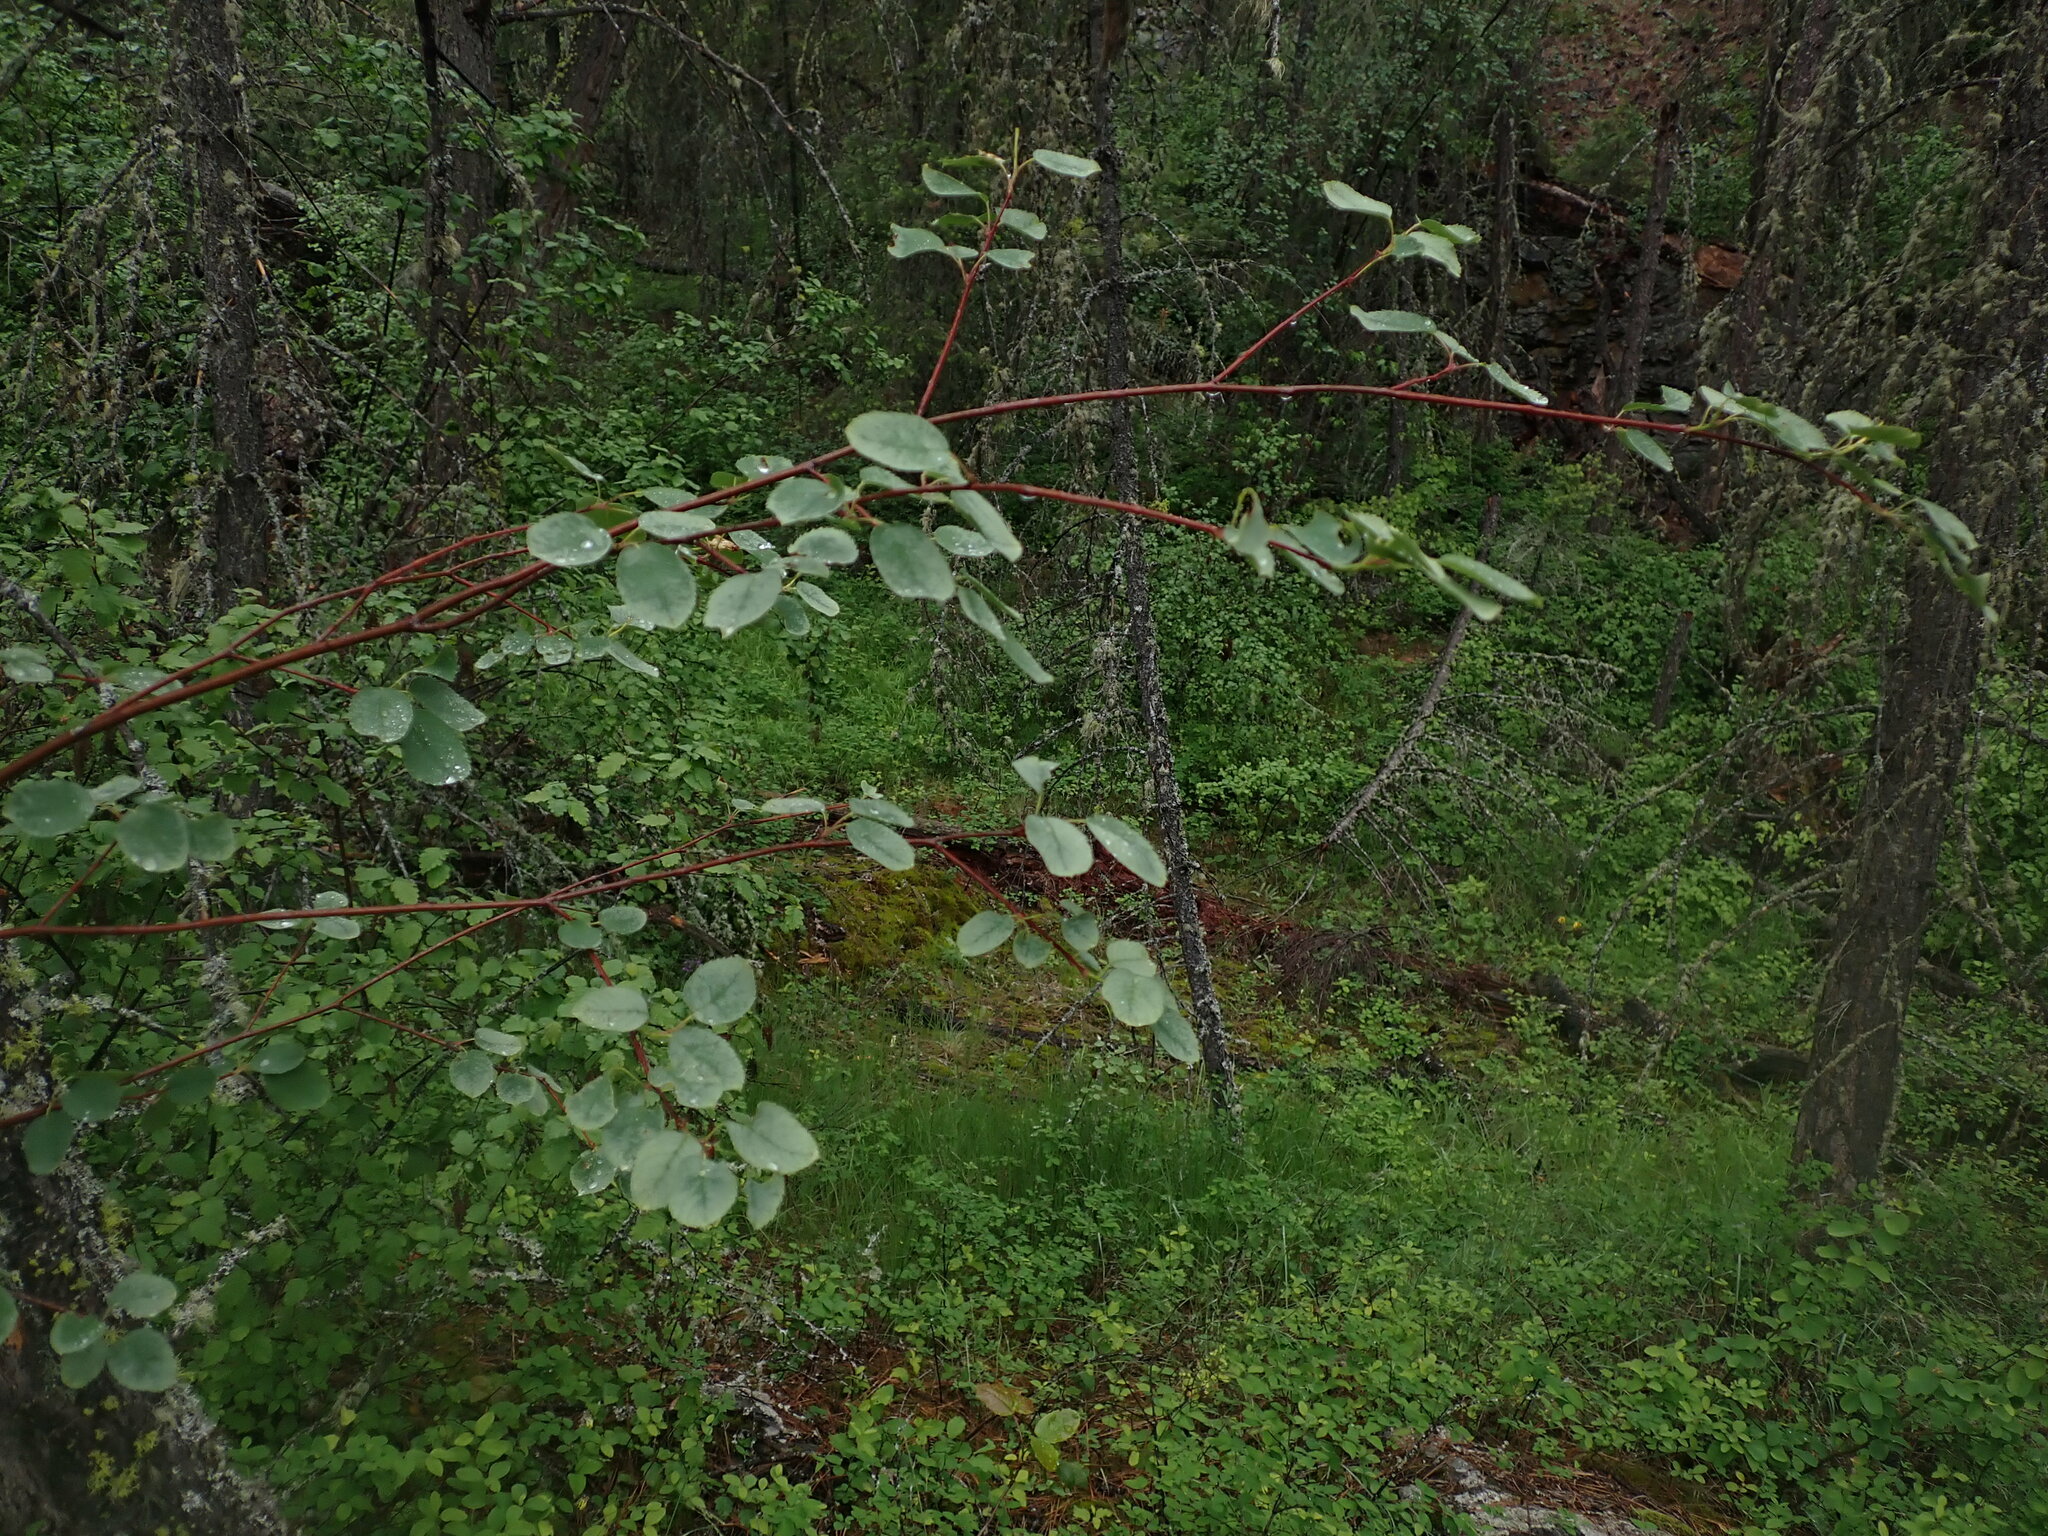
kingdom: Plantae
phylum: Tracheophyta
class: Magnoliopsida
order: Rosales
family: Rosaceae
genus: Amelanchier
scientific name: Amelanchier alnifolia
